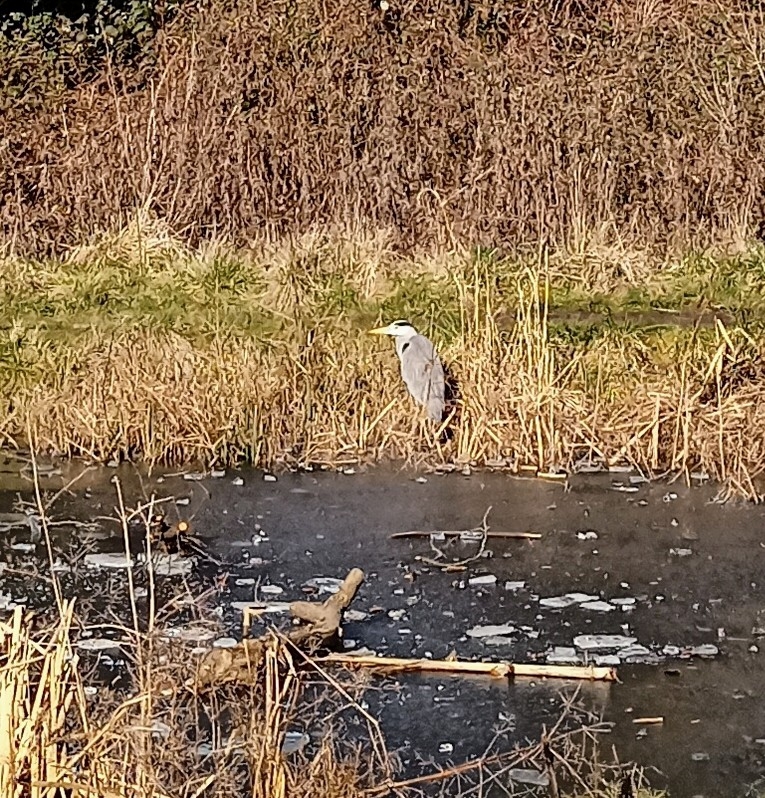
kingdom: Animalia
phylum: Chordata
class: Aves
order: Pelecaniformes
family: Ardeidae
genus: Ardea
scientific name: Ardea cinerea
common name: Grey heron
